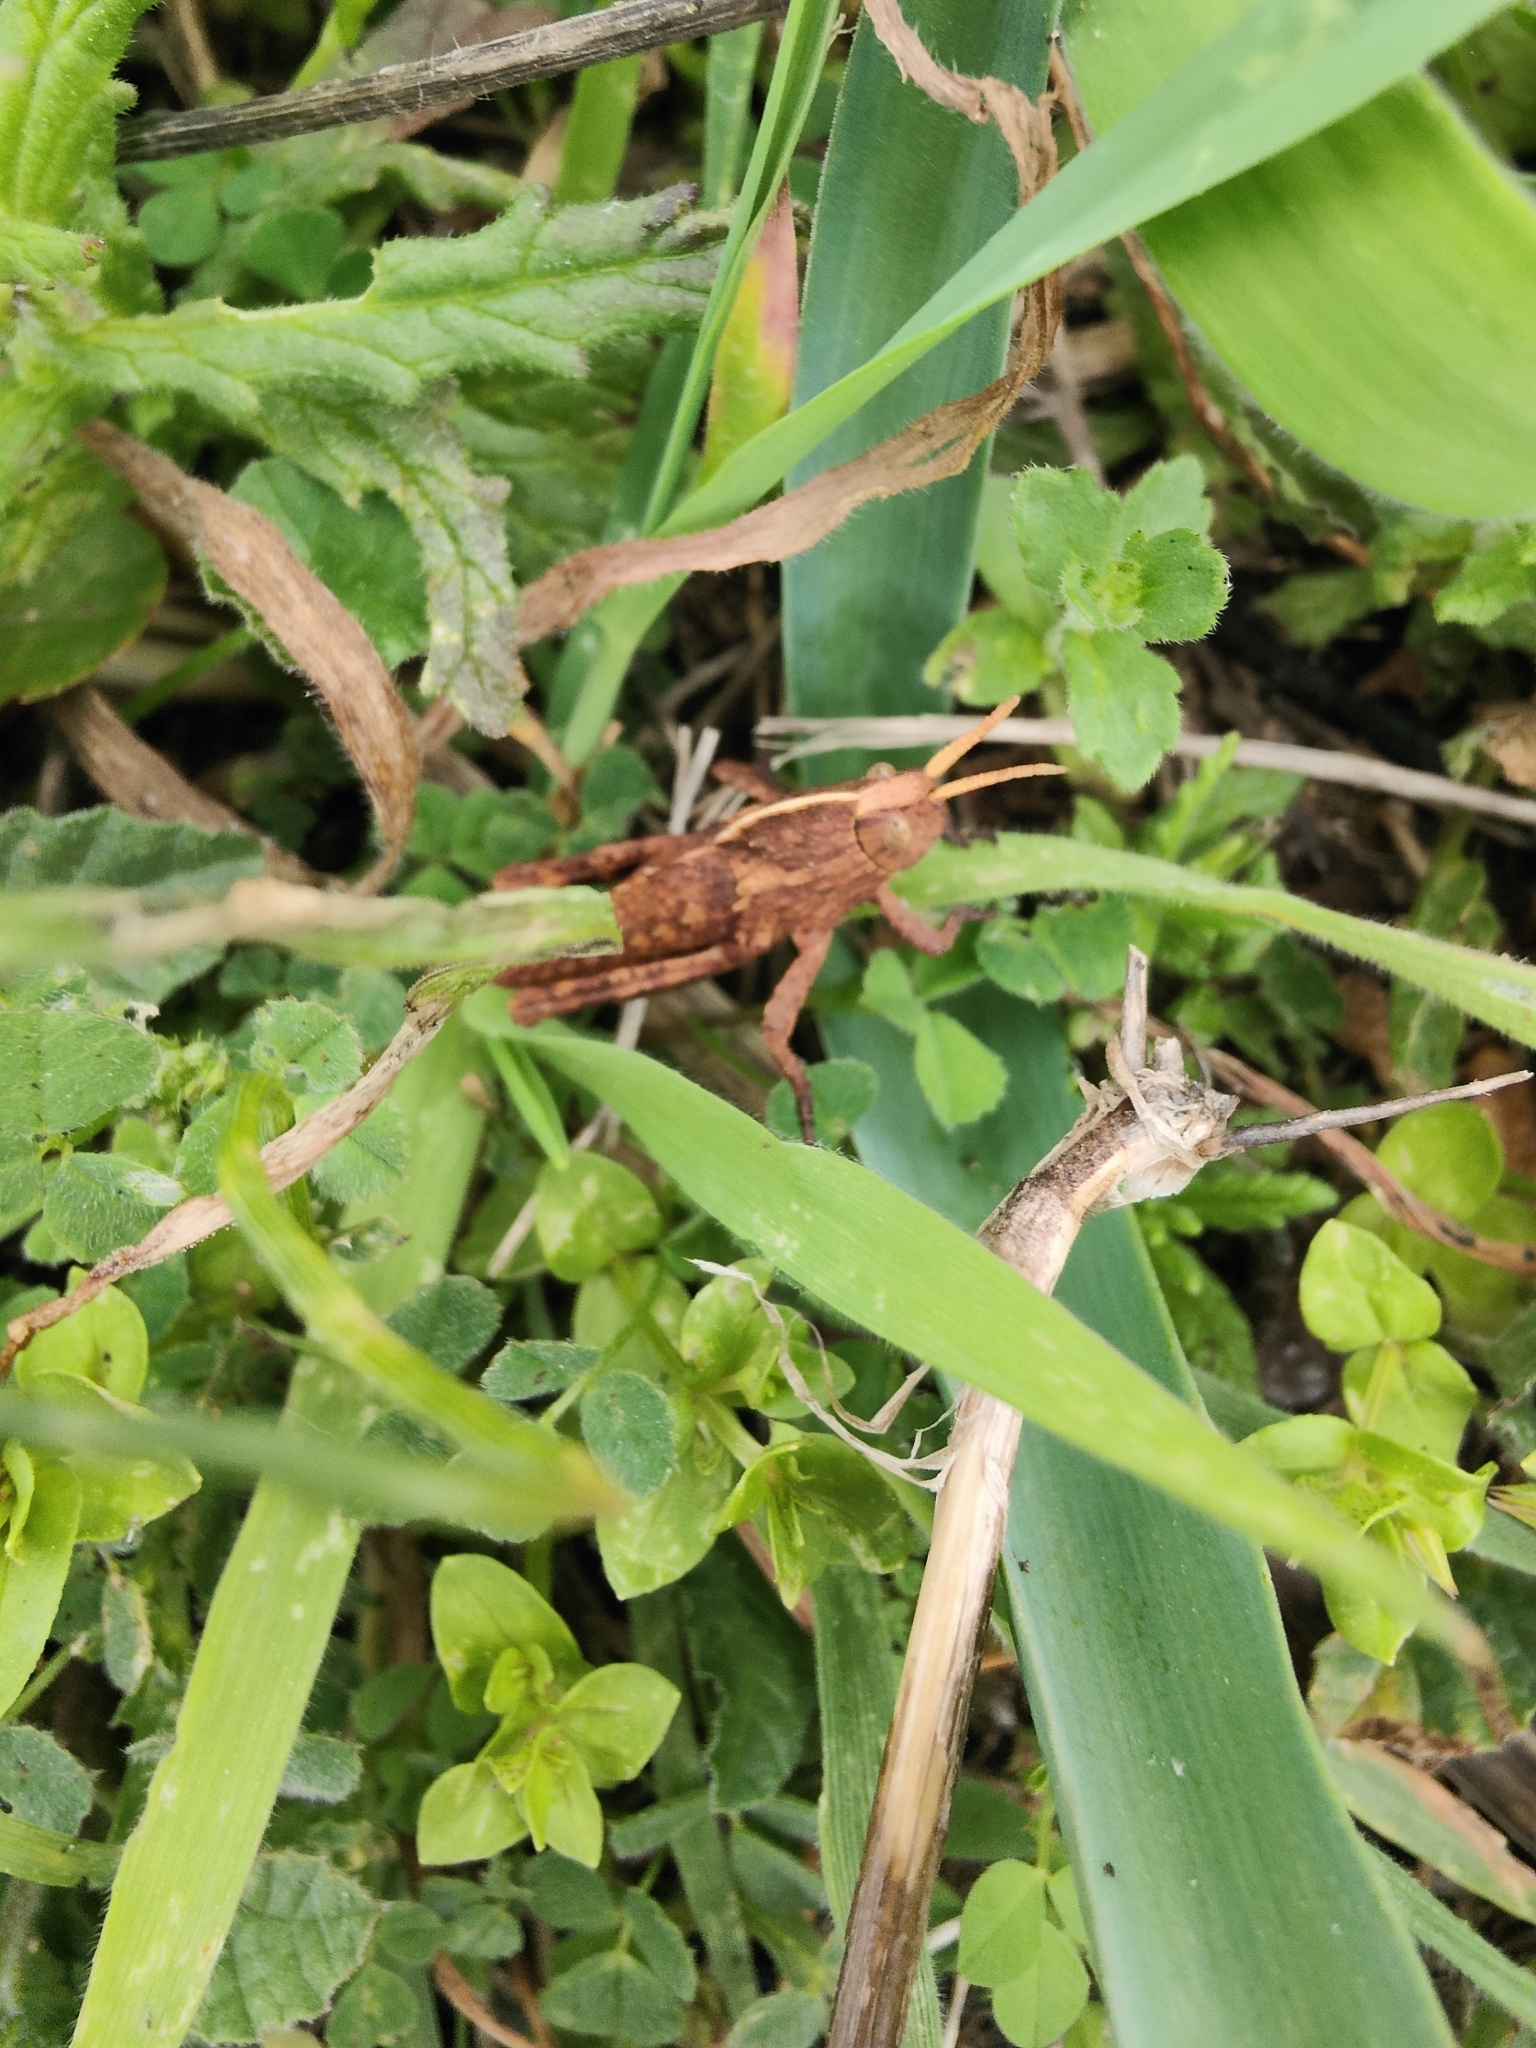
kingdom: Animalia
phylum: Arthropoda
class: Insecta
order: Orthoptera
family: Pamphagidae
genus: Pamphagus
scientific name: Pamphagus sardeus
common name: Sardinian stone grasshopper
